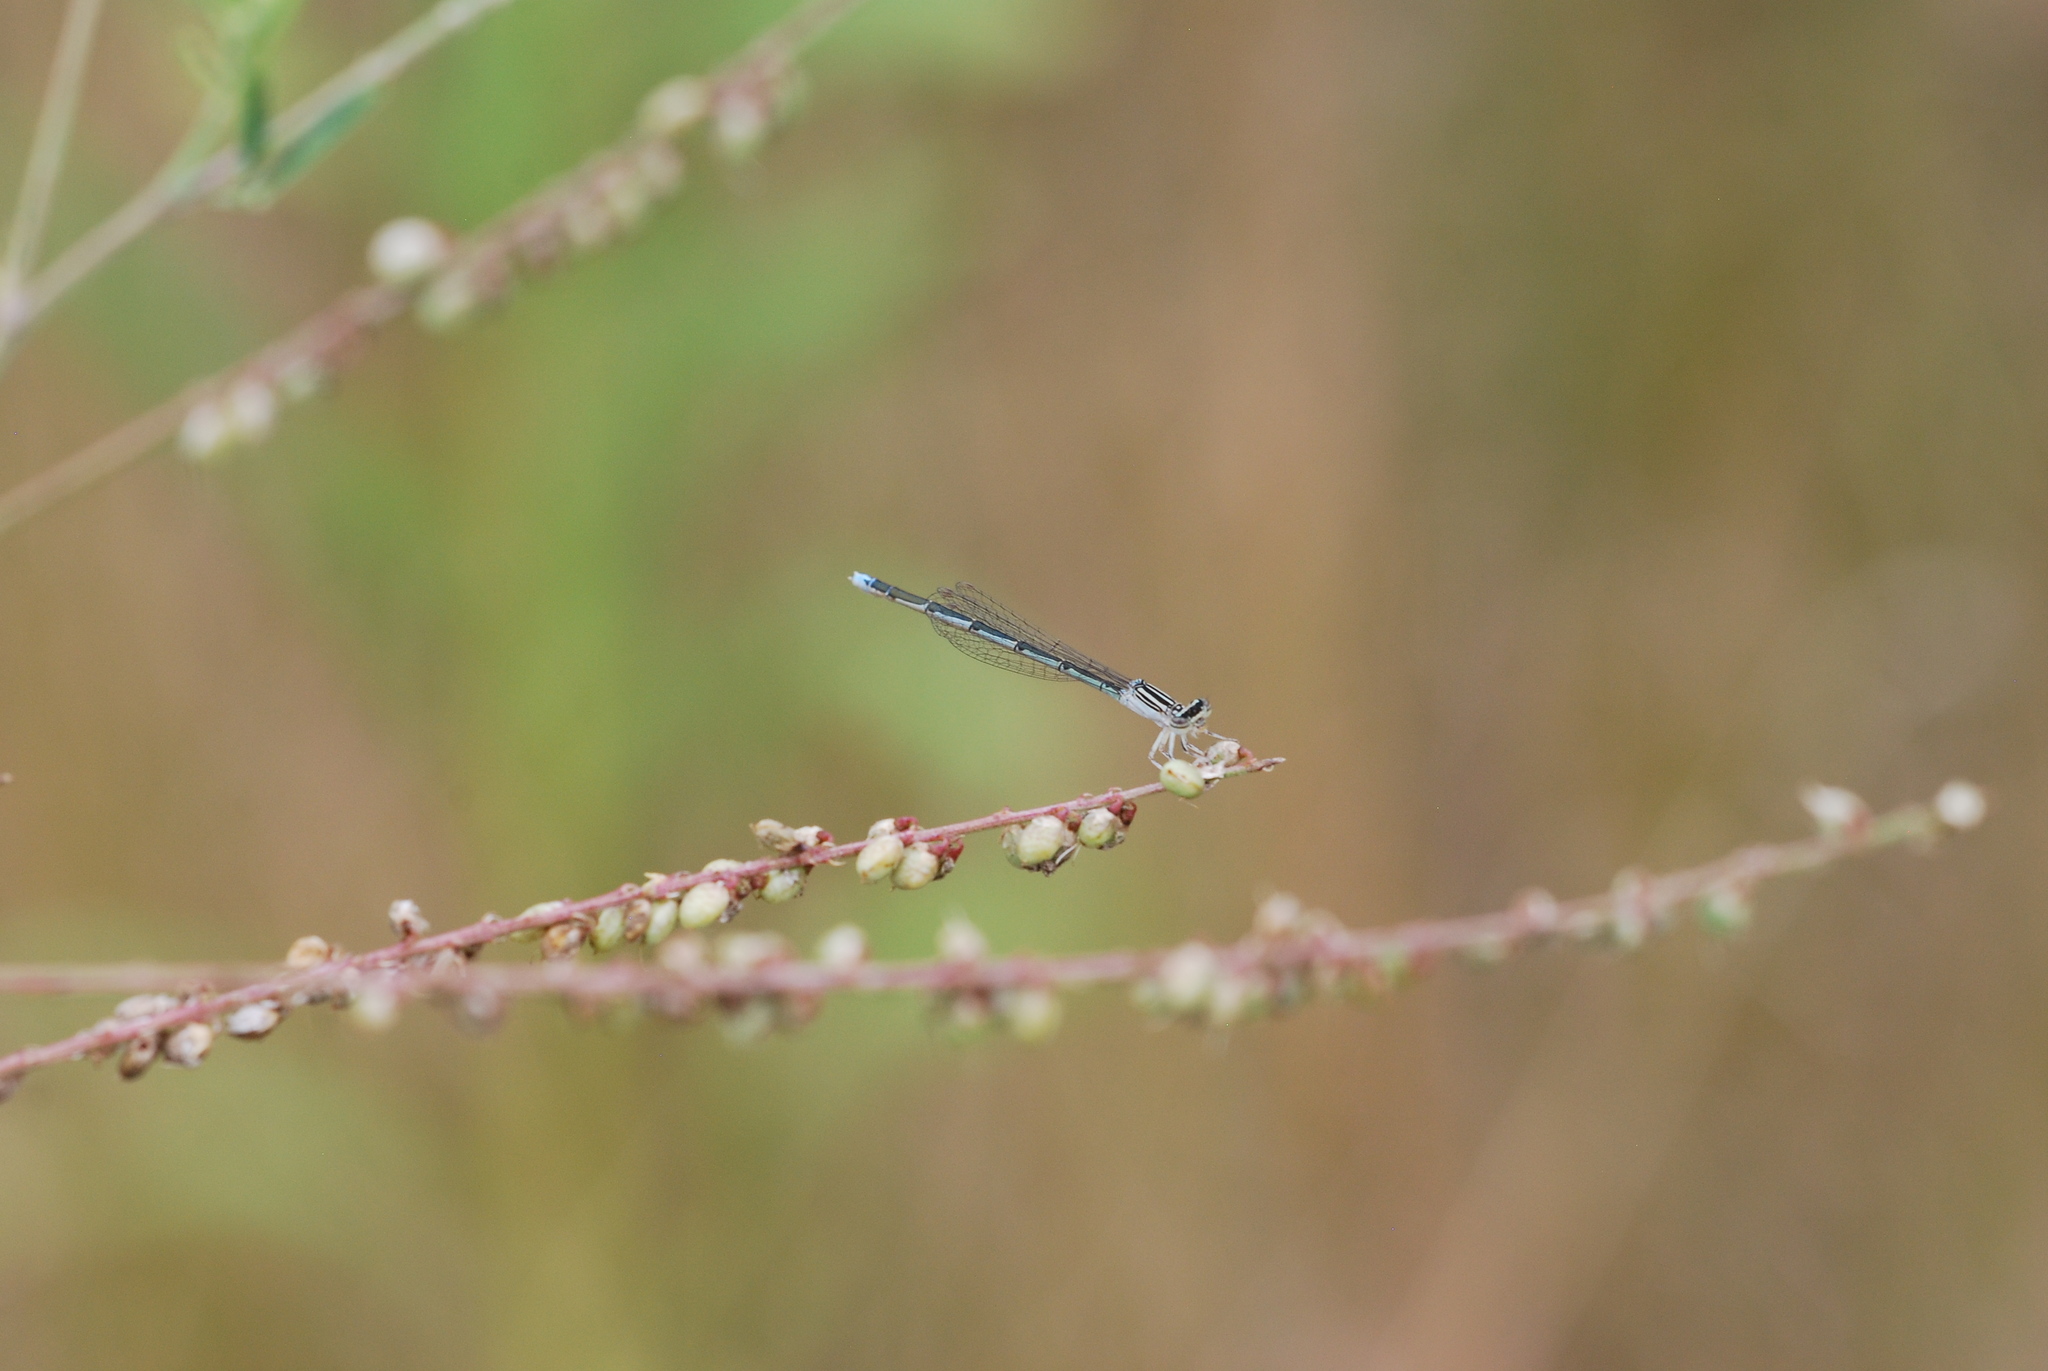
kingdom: Animalia
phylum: Arthropoda
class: Insecta
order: Odonata
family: Coenagrionidae
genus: Enallagma
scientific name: Enallagma basidens
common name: Double-striped bluet
